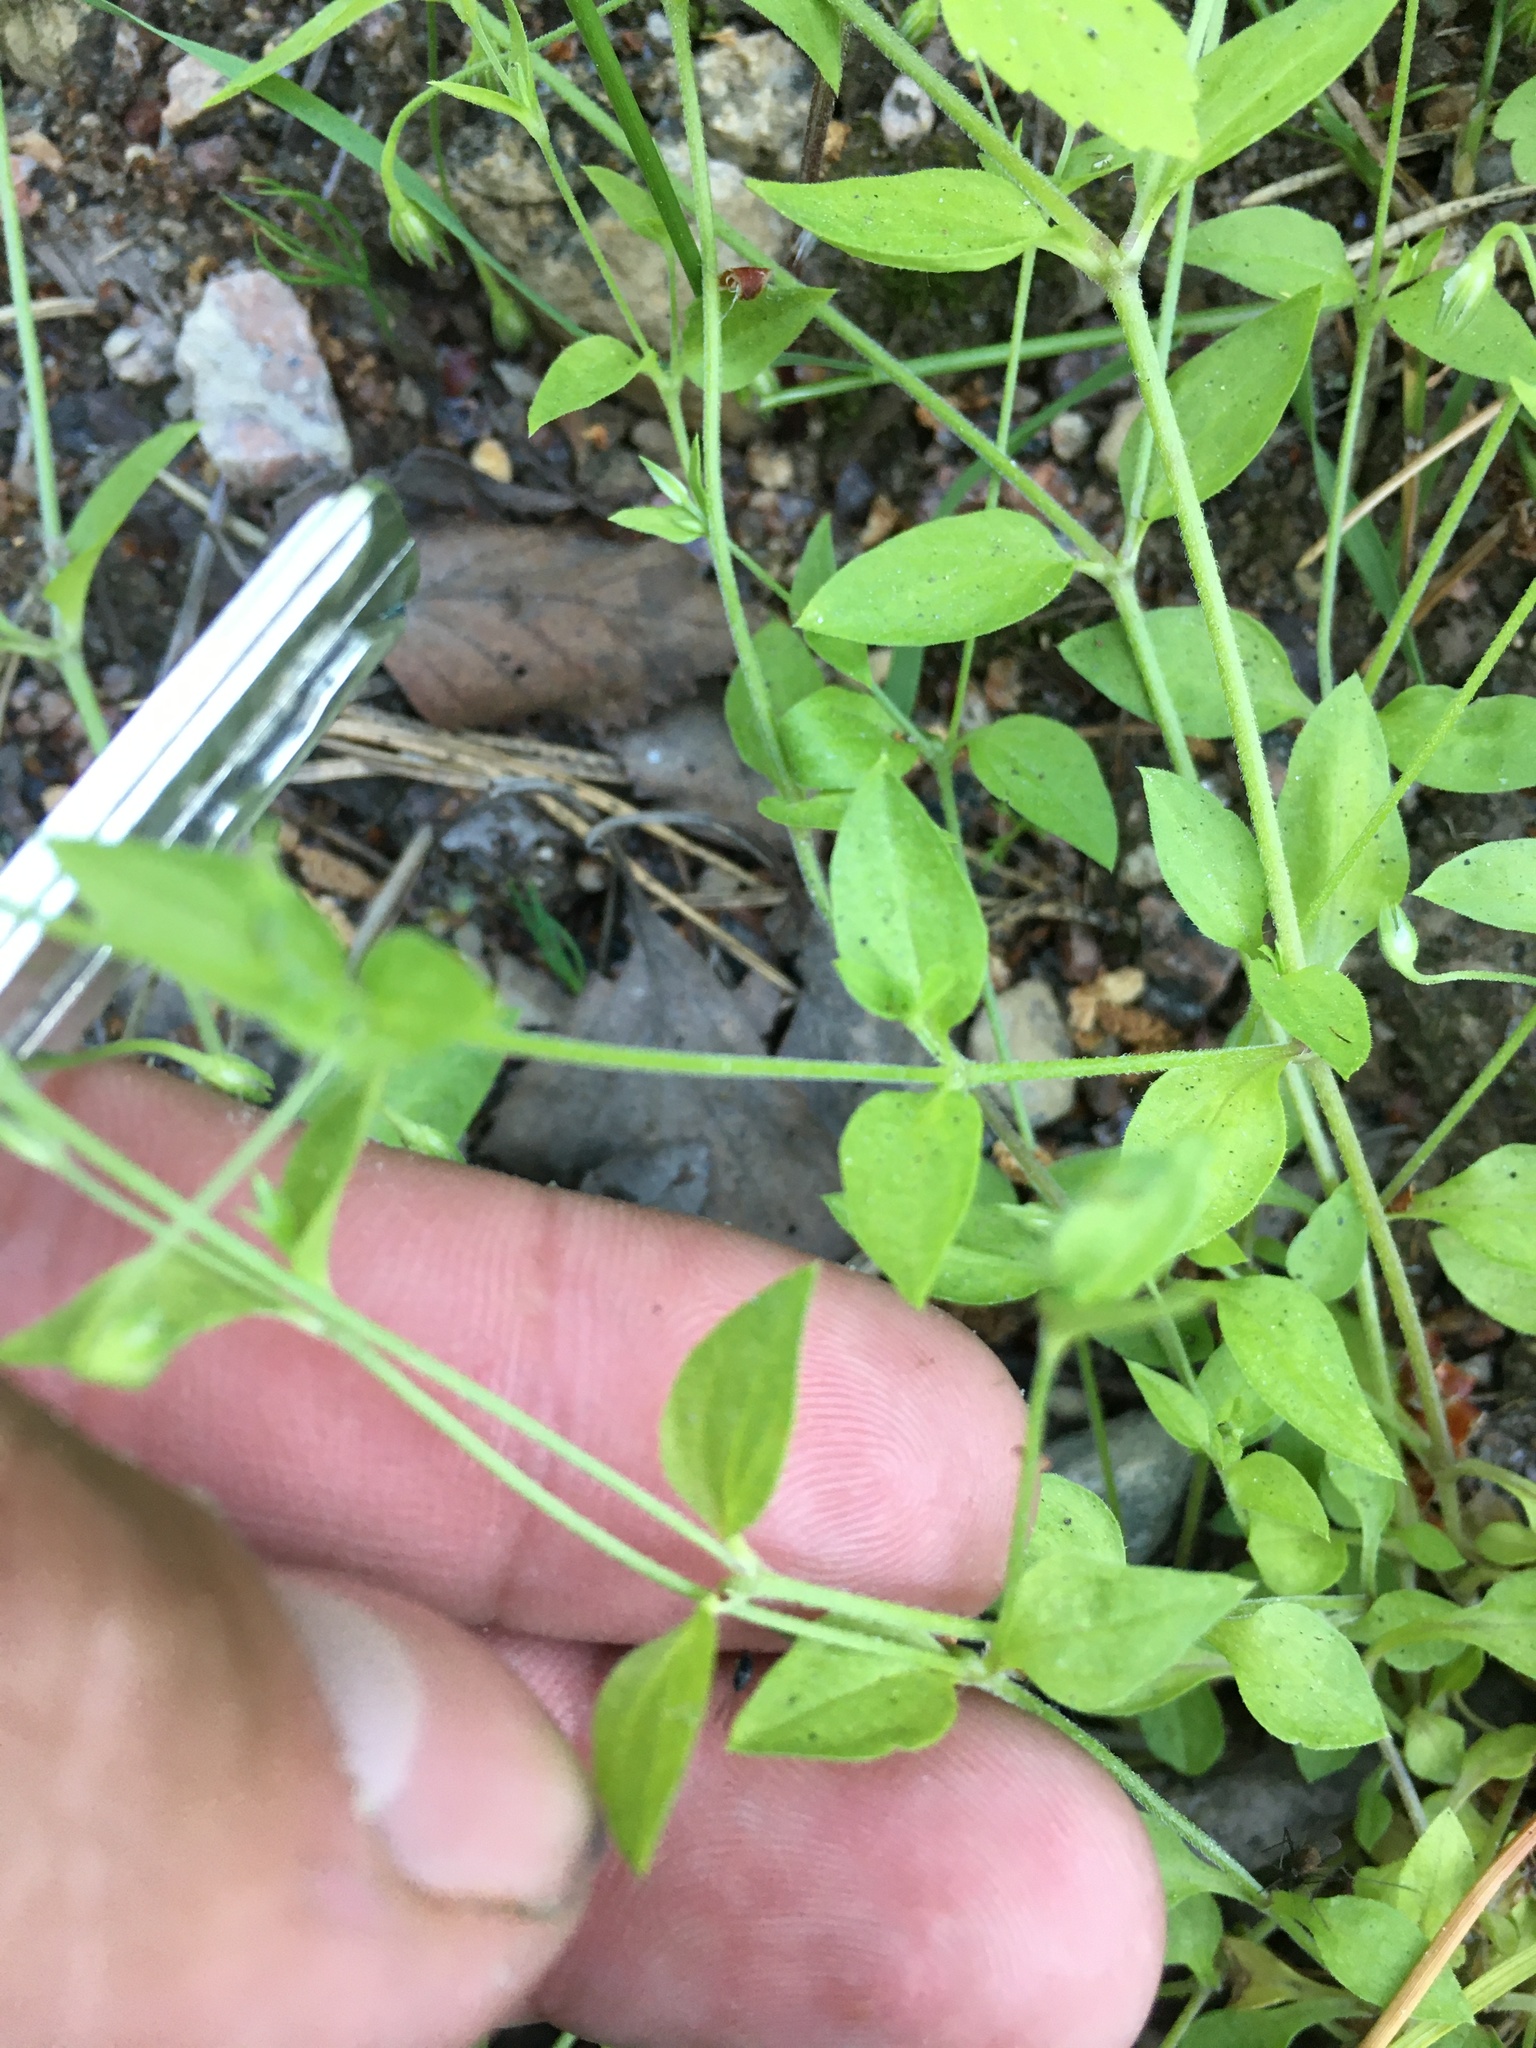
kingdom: Plantae
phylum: Tracheophyta
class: Magnoliopsida
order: Caryophyllales
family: Caryophyllaceae
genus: Moehringia
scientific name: Moehringia trinervia
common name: Three-nerved sandwort
